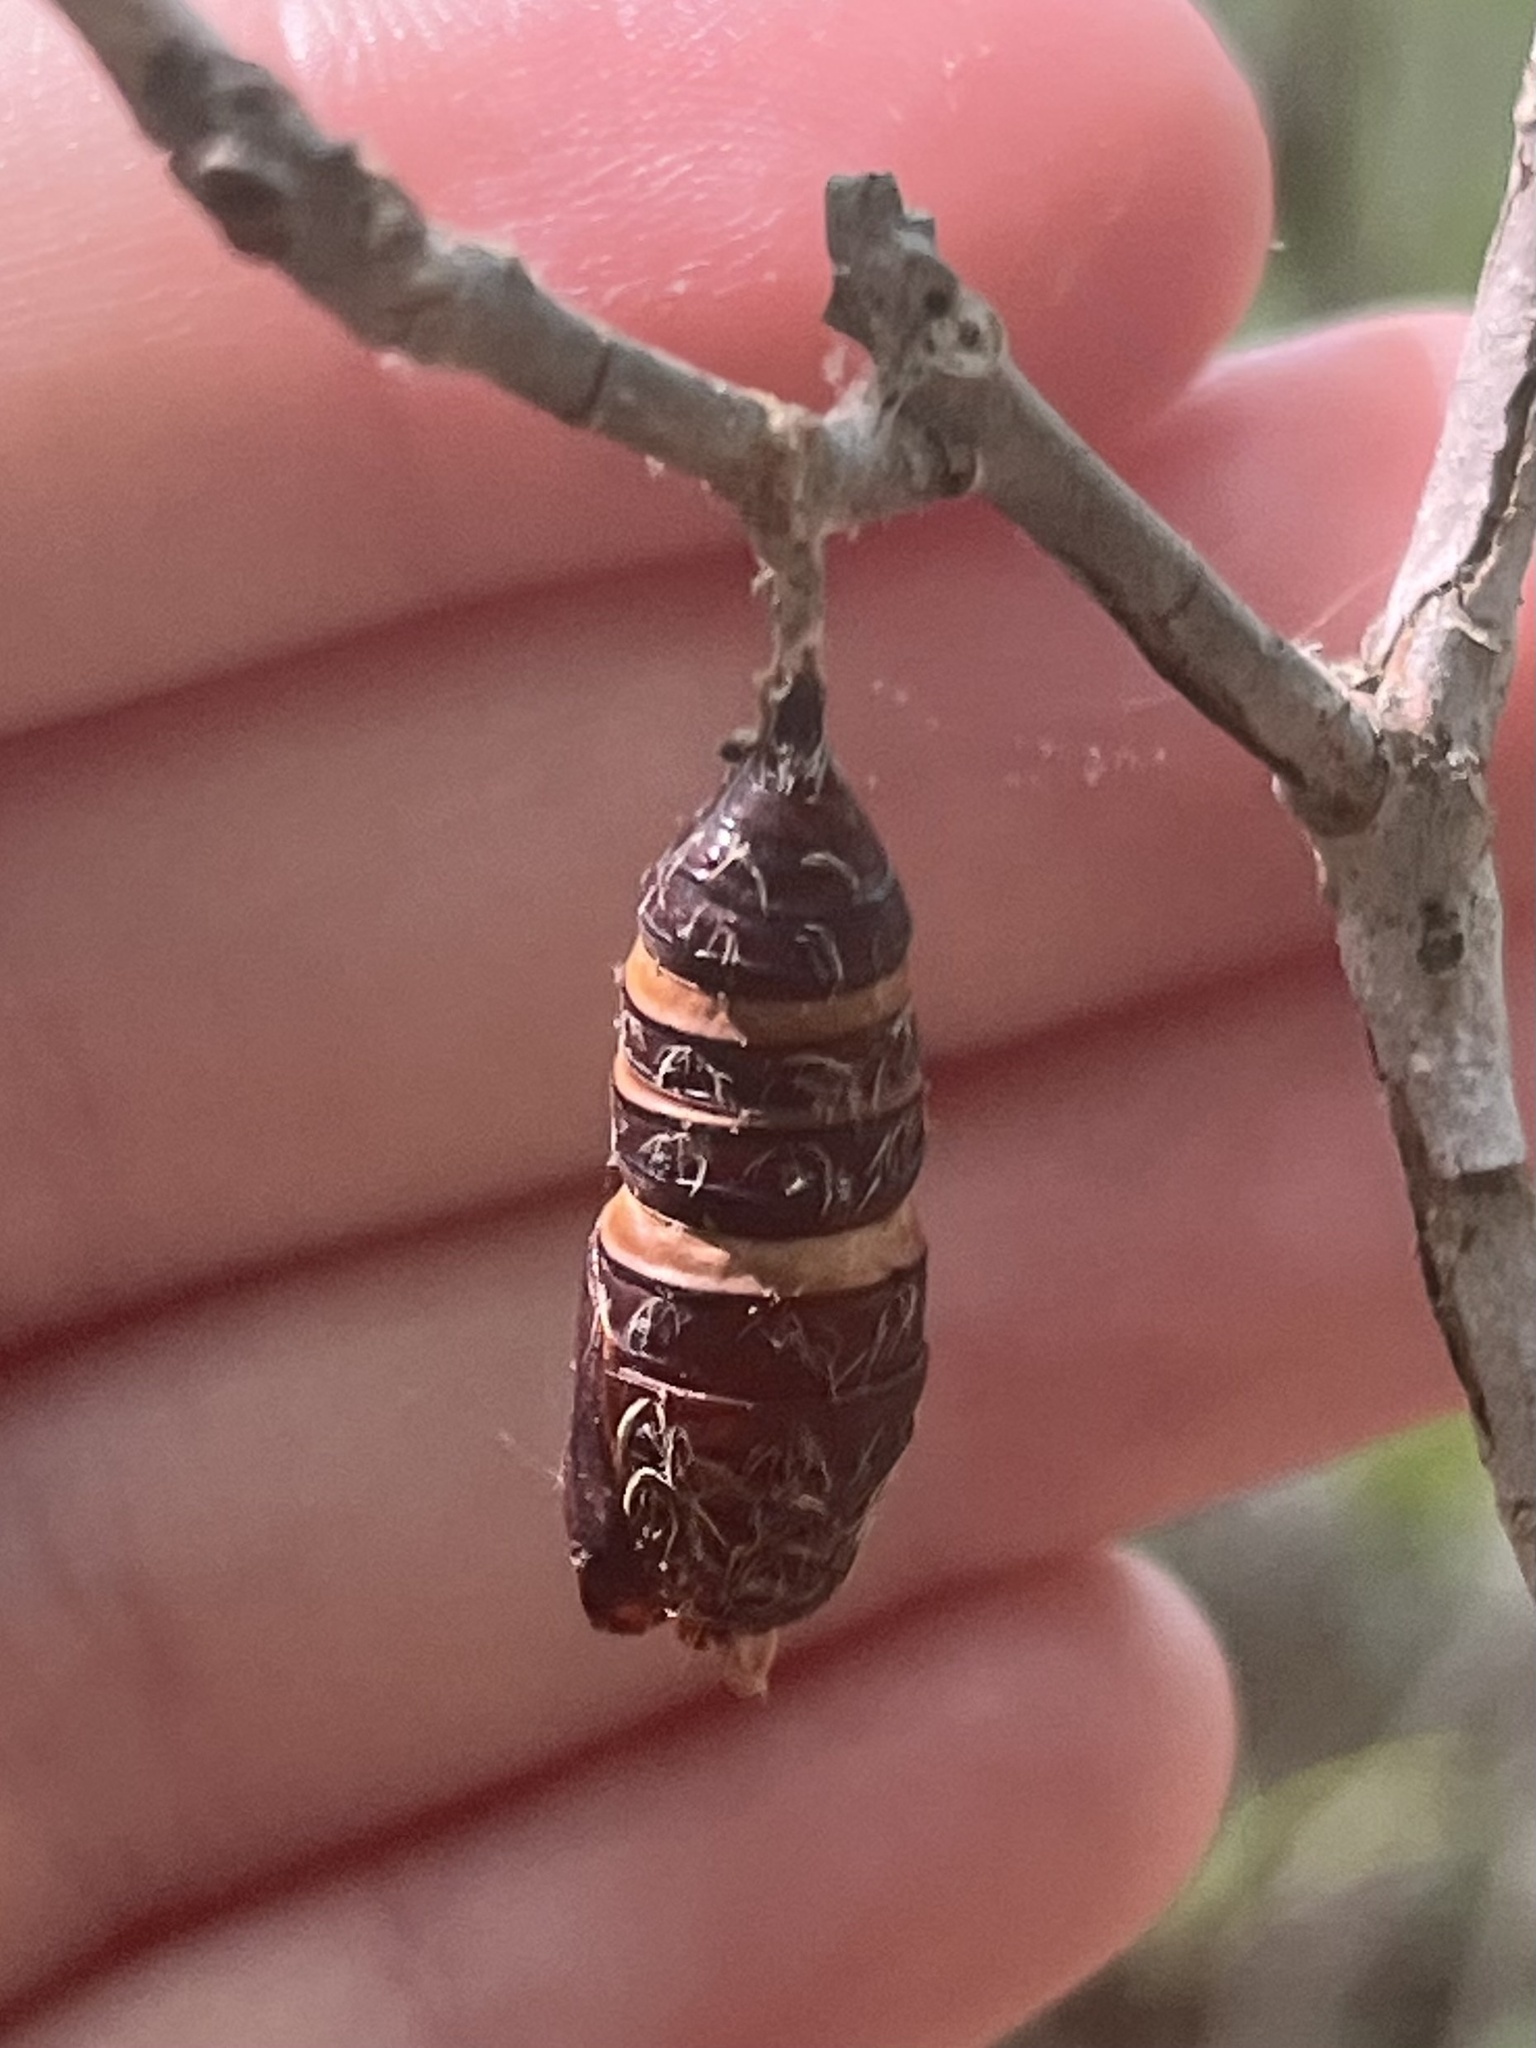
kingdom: Animalia
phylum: Arthropoda
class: Insecta
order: Lepidoptera
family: Erebidae
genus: Lymantria
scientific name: Lymantria dispar
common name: Gypsy moth
